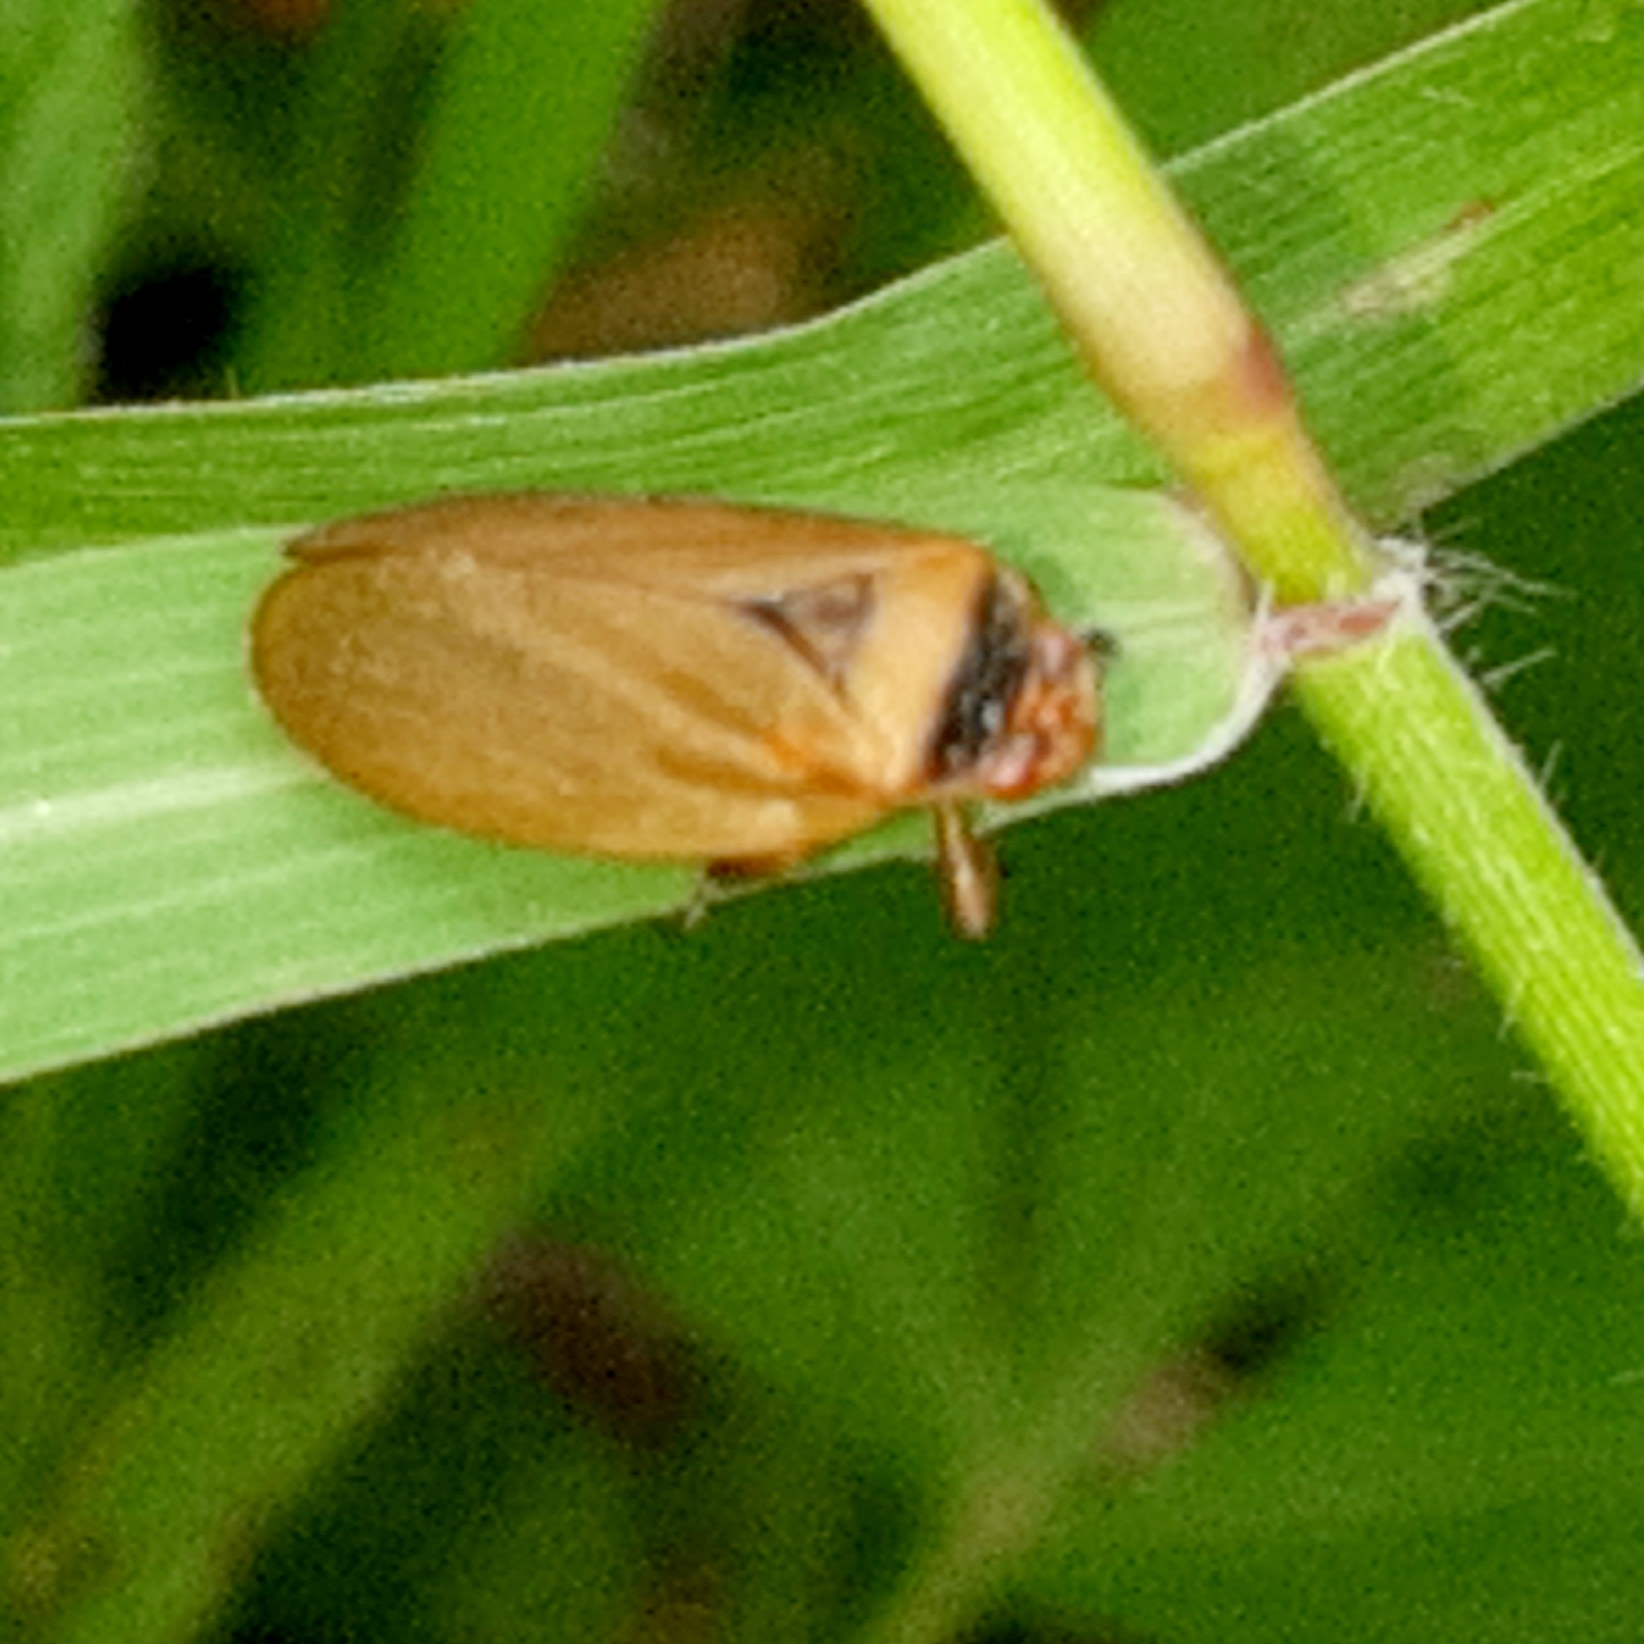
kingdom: Animalia
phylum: Arthropoda
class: Insecta
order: Hemiptera
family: Cercopidae
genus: Prosapia
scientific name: Prosapia plagiata
